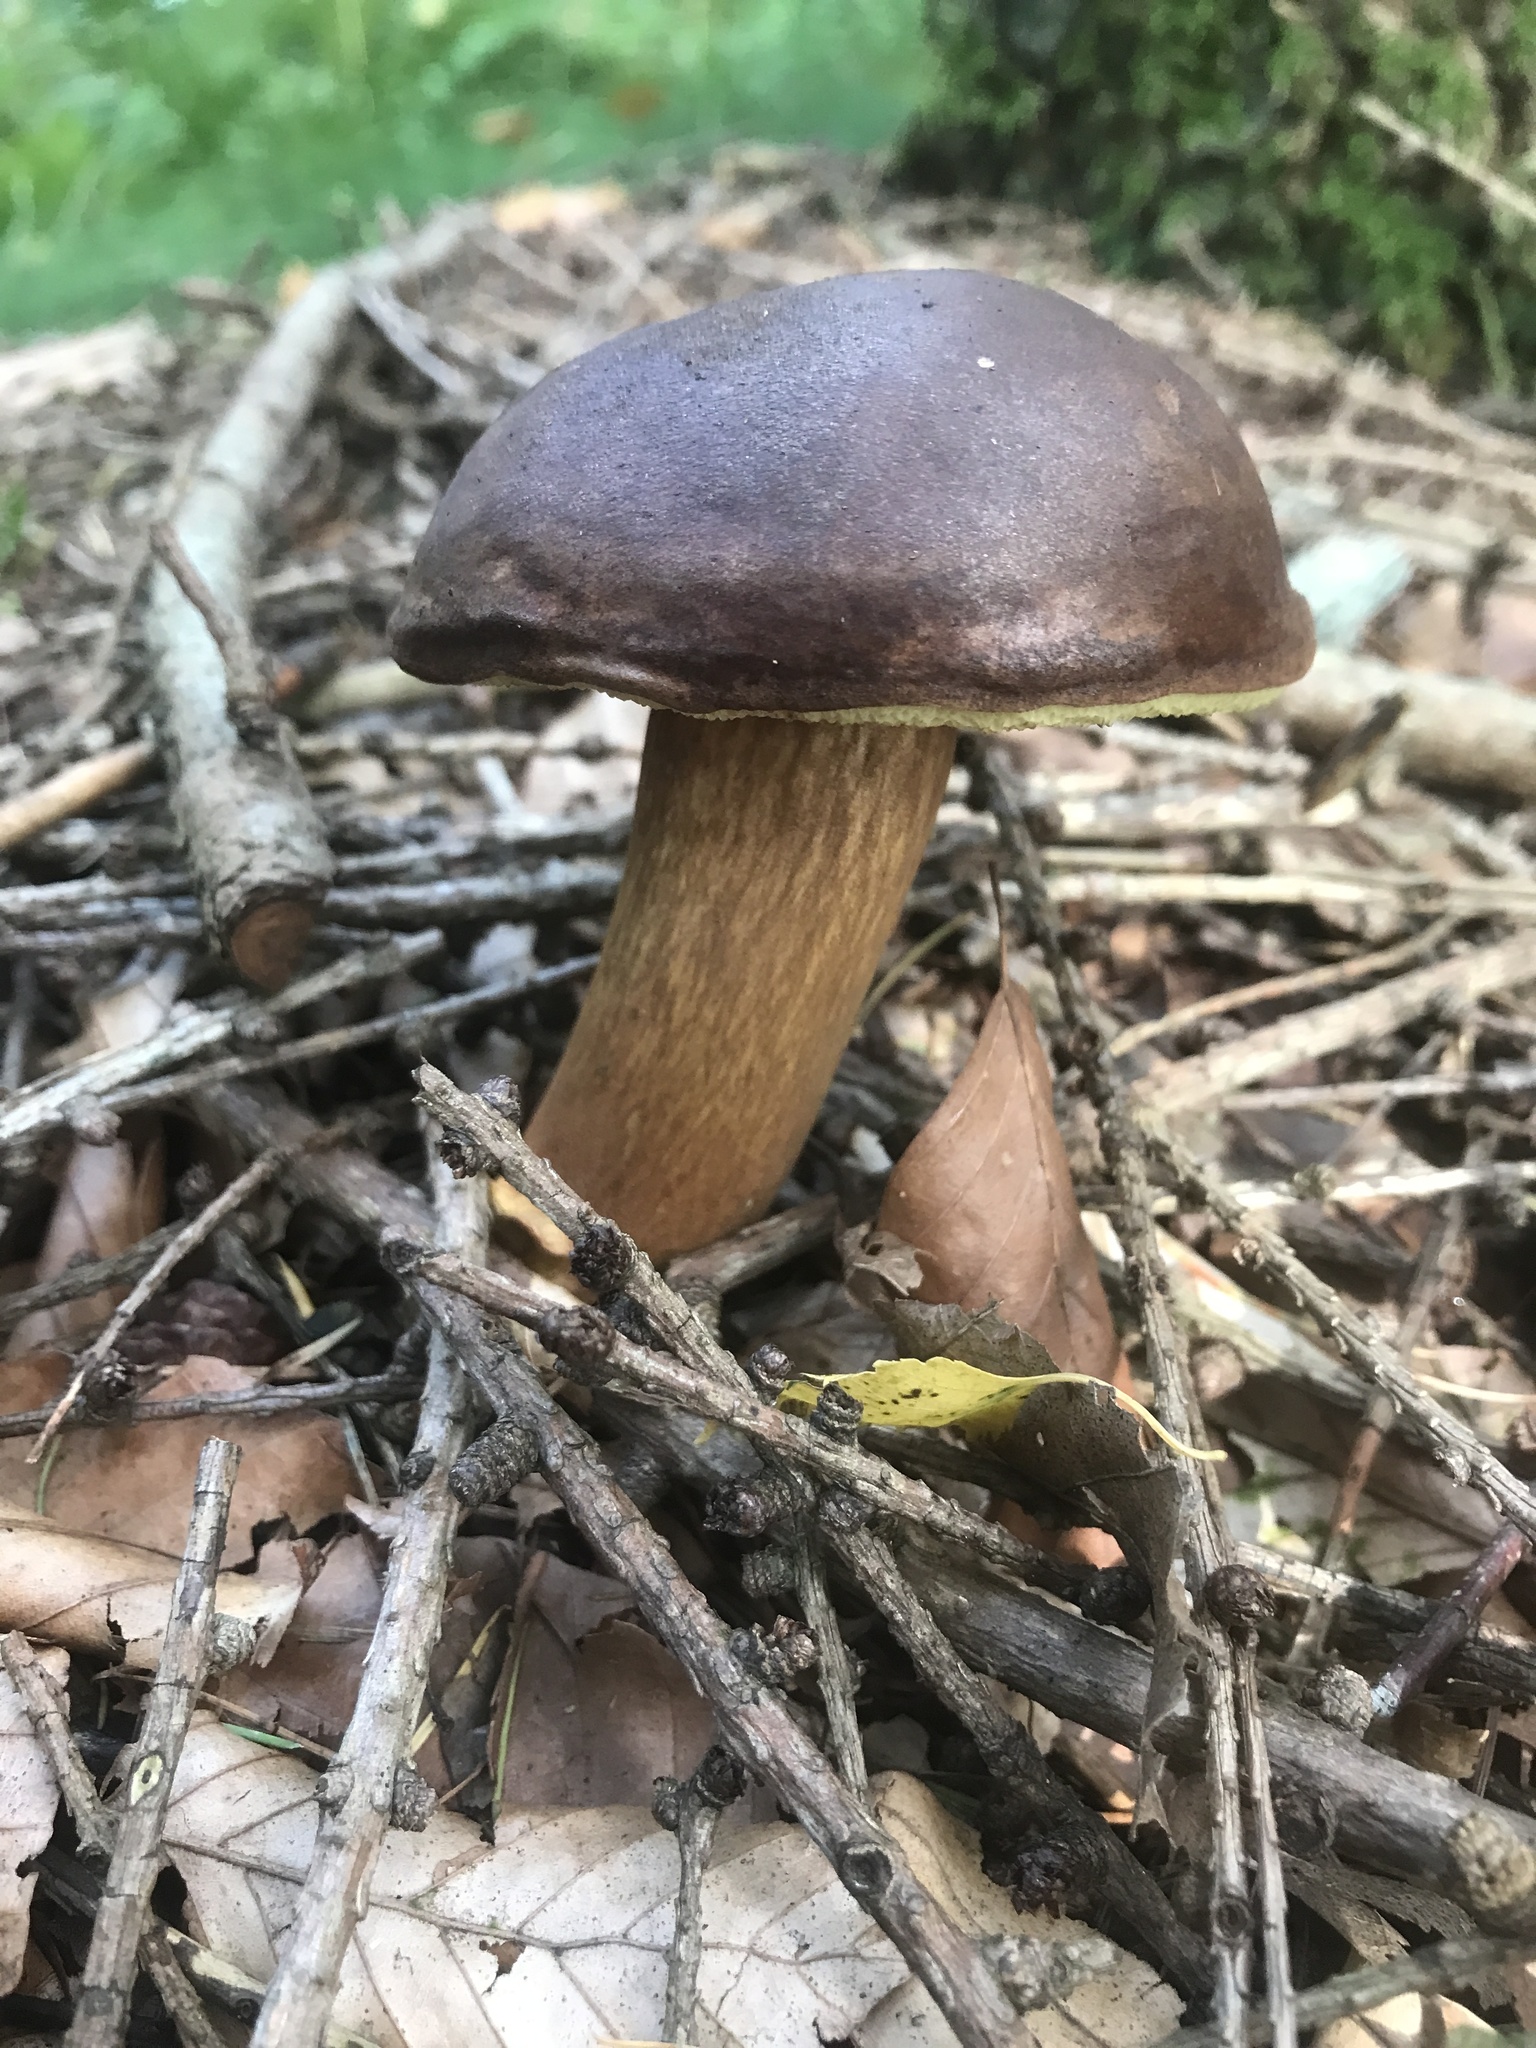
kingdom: Fungi
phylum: Basidiomycota
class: Agaricomycetes
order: Boletales
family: Boletaceae
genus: Imleria
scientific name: Imleria badia
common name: Bay bolete
